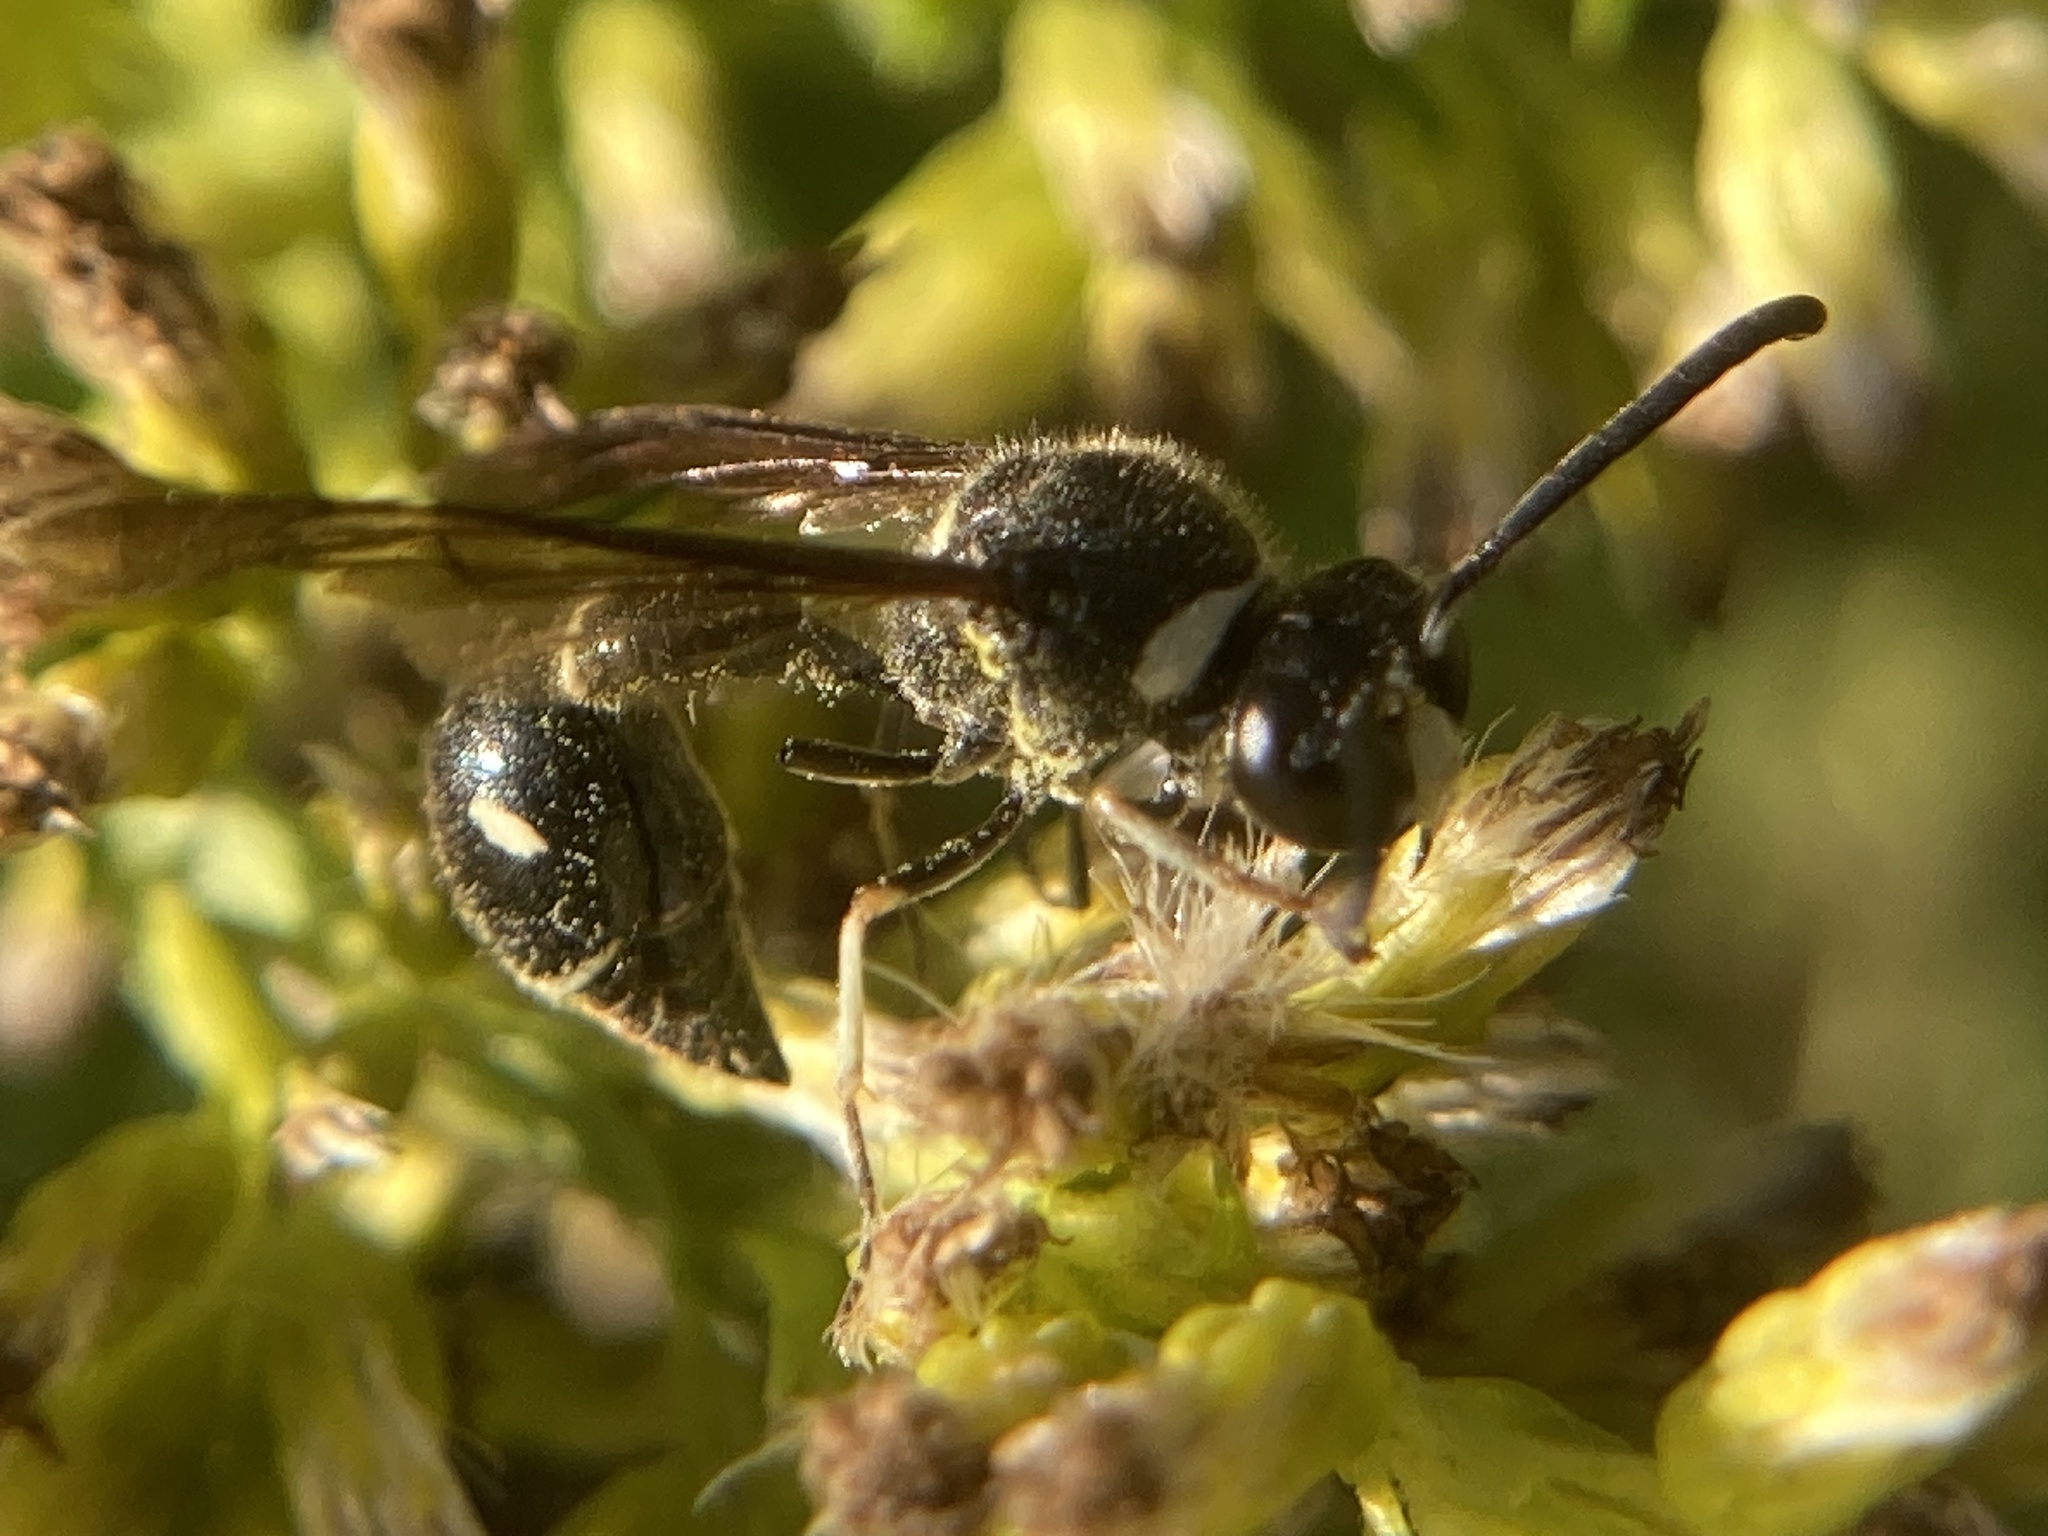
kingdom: Animalia
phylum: Arthropoda
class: Insecta
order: Hymenoptera
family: Vespidae
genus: Eumenes
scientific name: Eumenes fraternus
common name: Fraternal potter wasp
